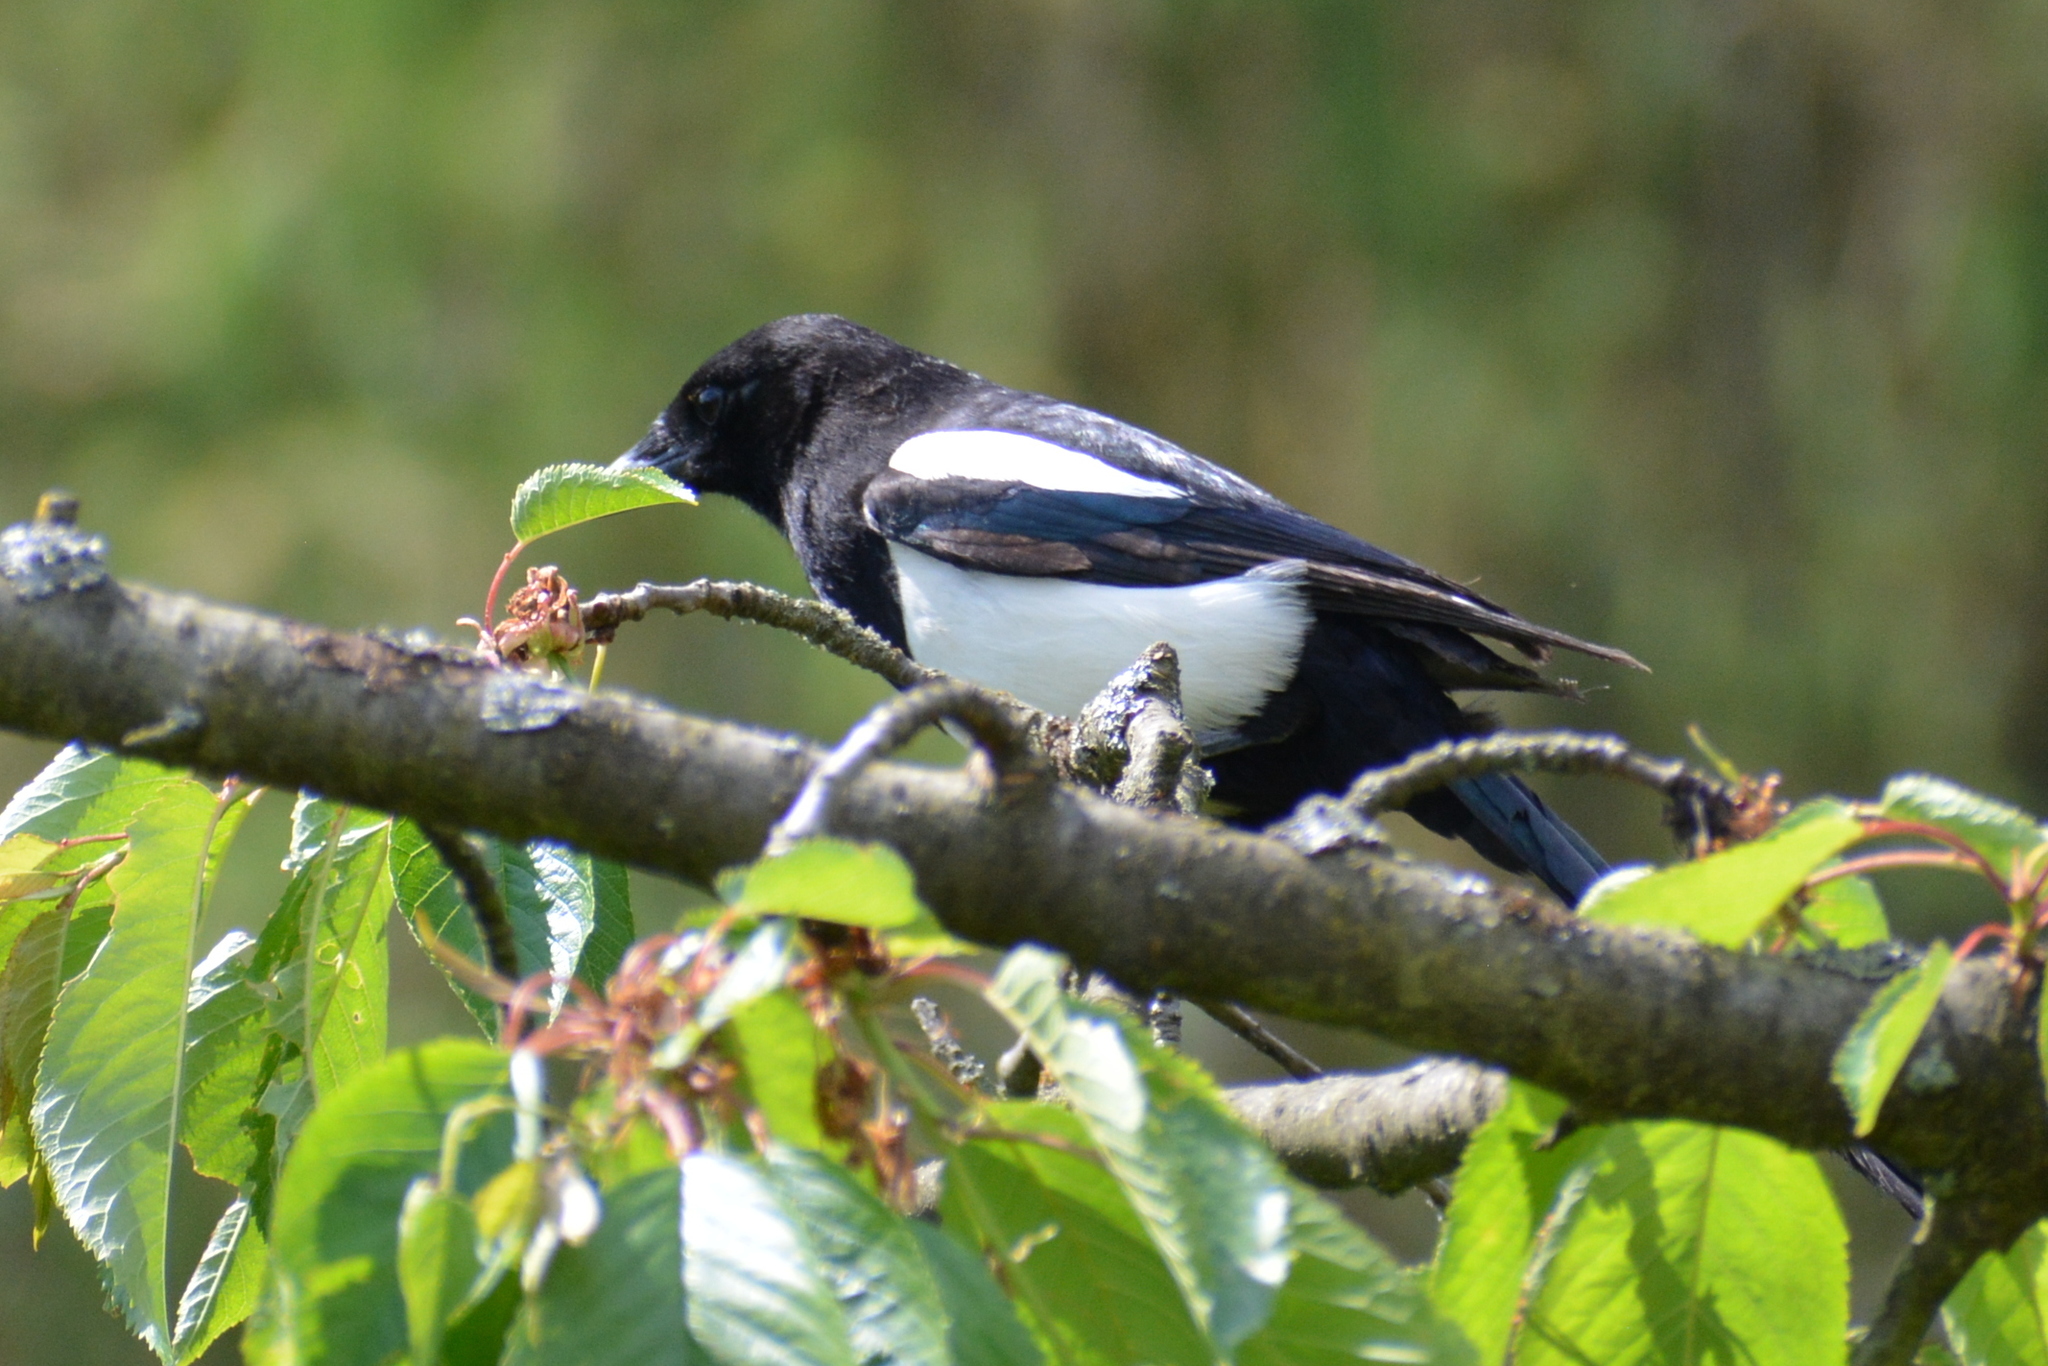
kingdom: Animalia
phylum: Chordata
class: Aves
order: Passeriformes
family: Corvidae
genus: Pica
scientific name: Pica pica
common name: Eurasian magpie
